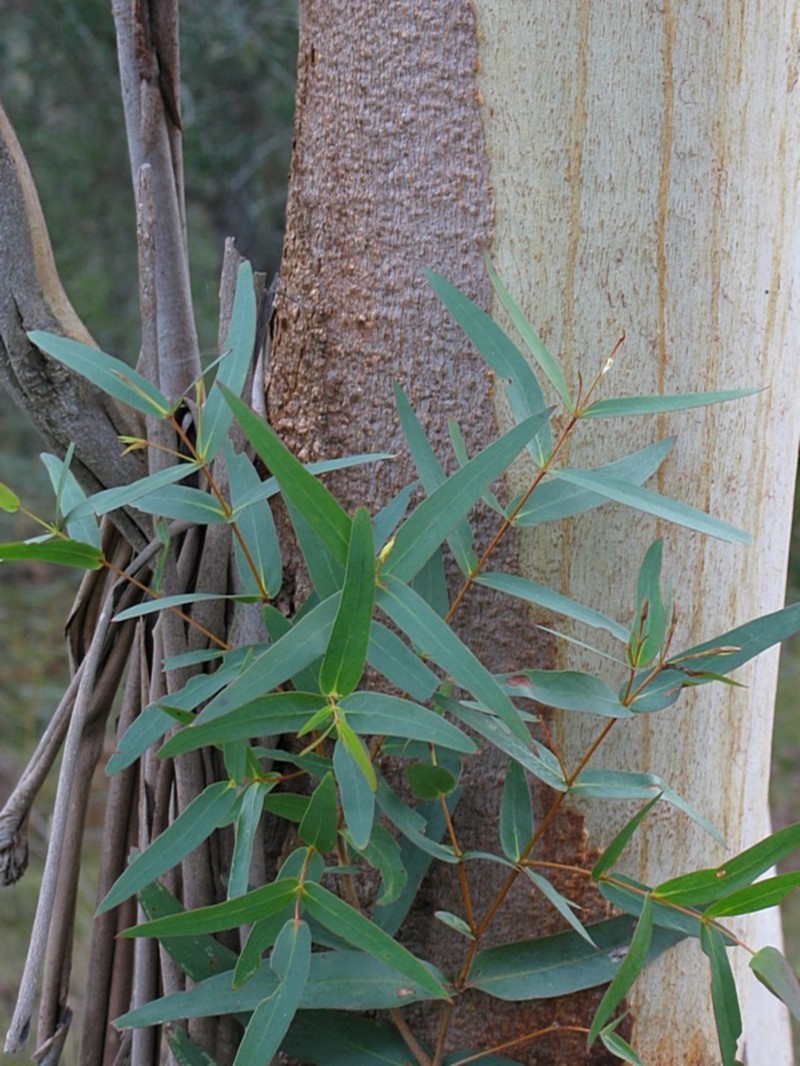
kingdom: Plantae
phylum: Tracheophyta
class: Magnoliopsida
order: Myrtales
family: Myrtaceae
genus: Eucalyptus
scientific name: Eucalyptus elata
